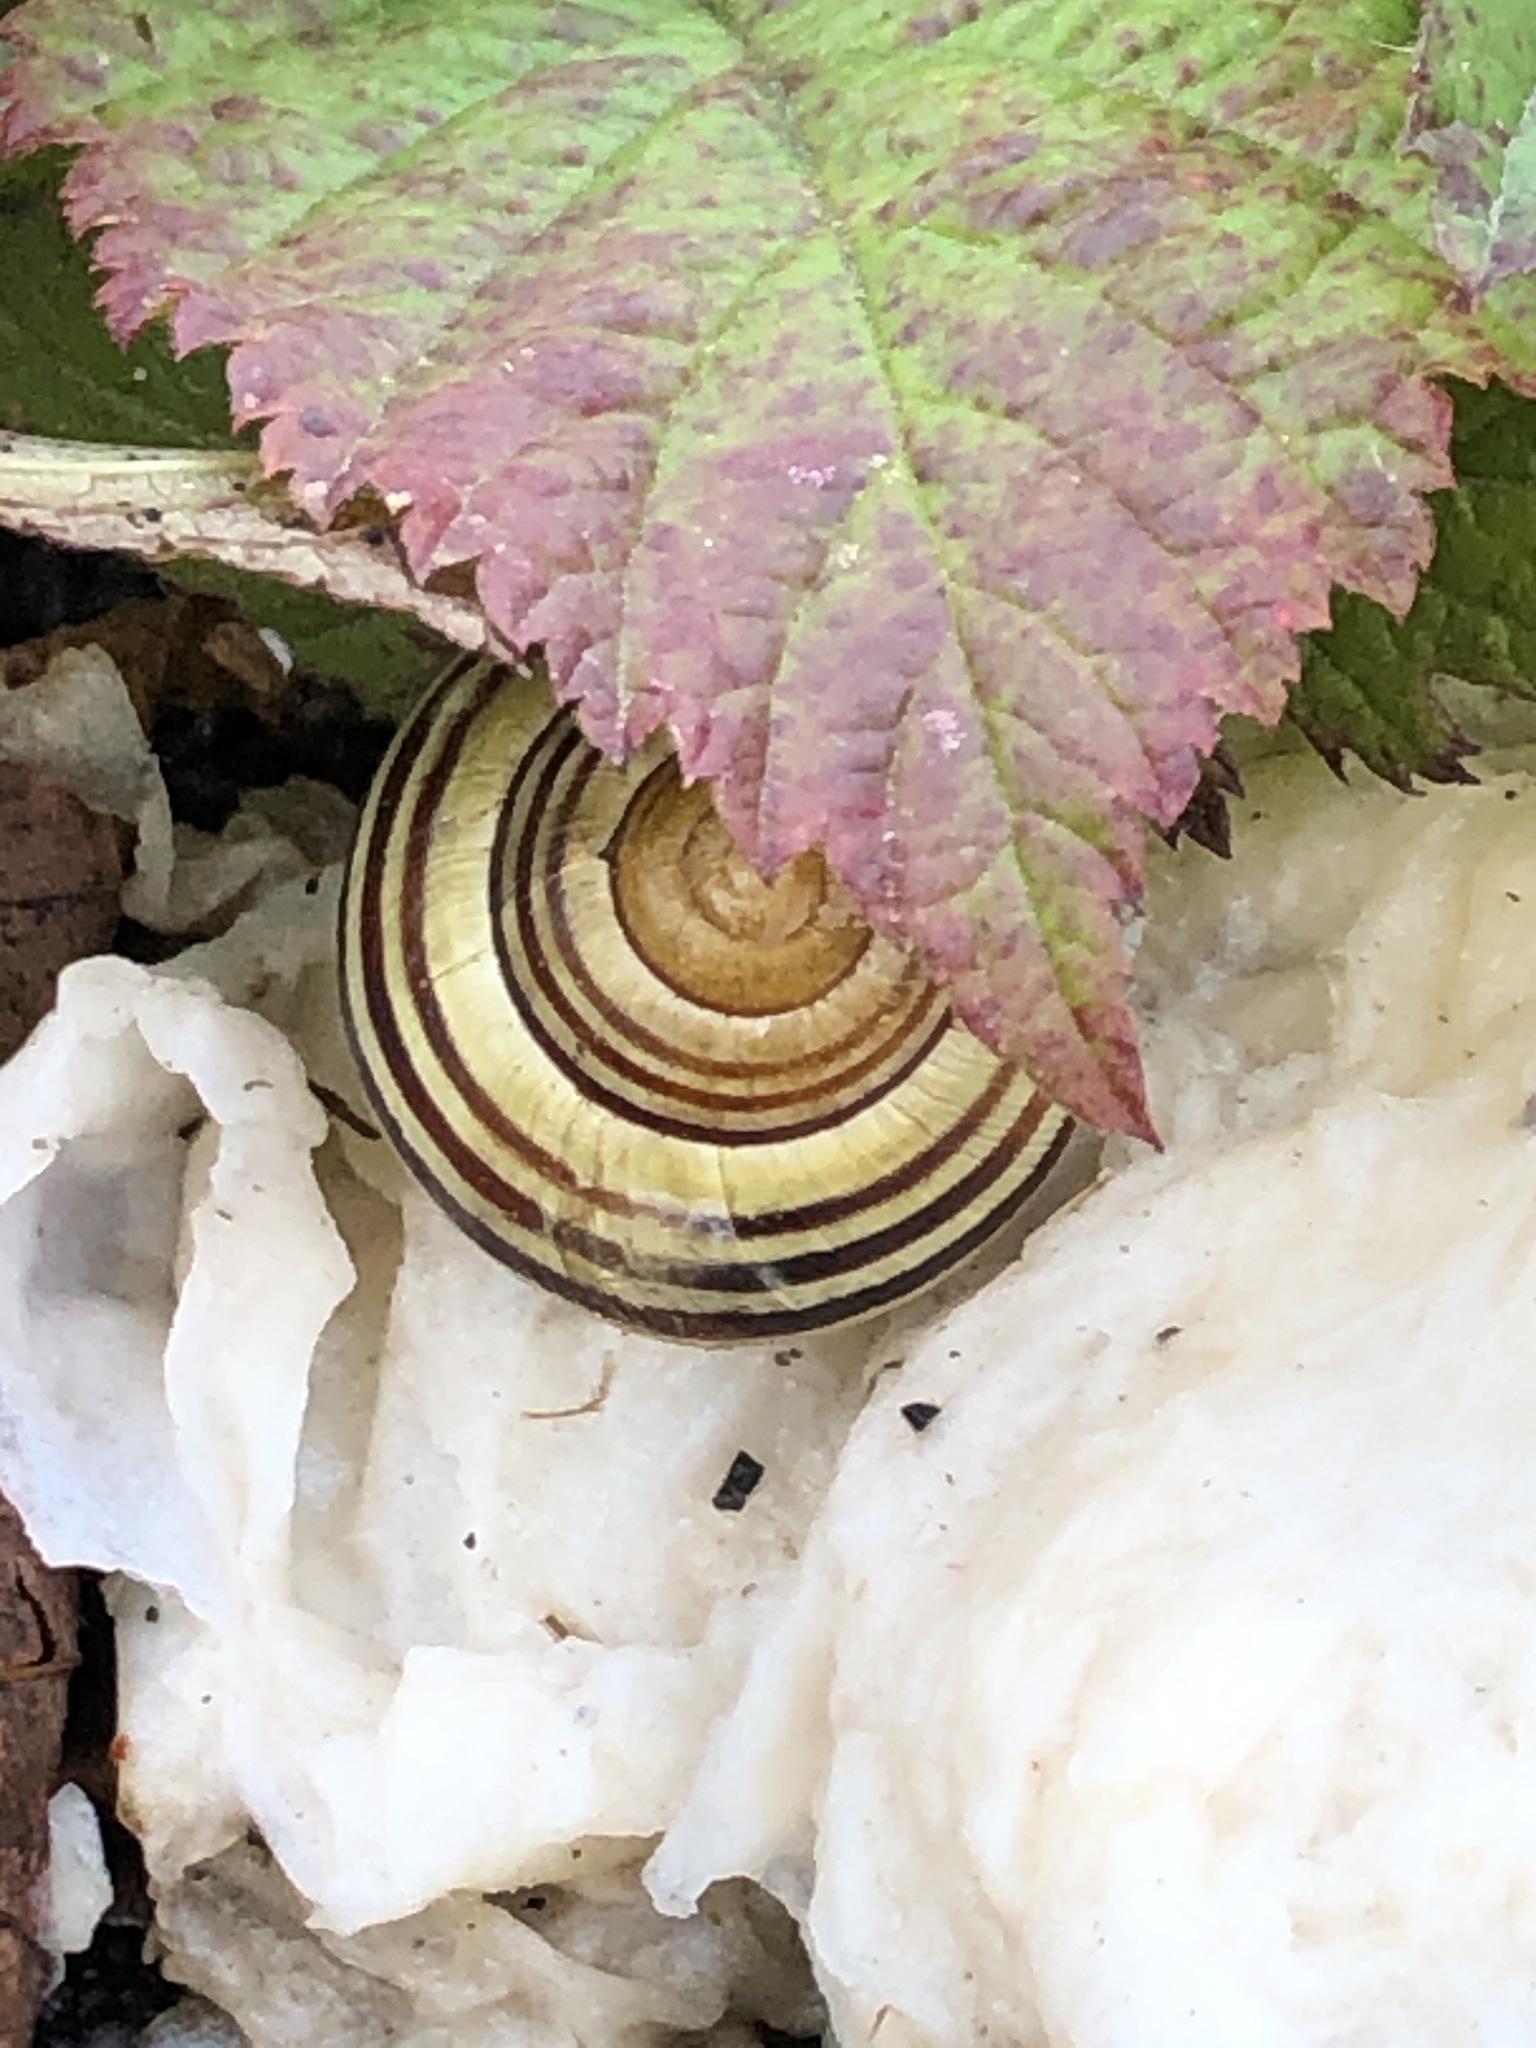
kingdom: Animalia
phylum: Mollusca
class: Gastropoda
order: Stylommatophora
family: Helicidae
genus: Cepaea
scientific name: Cepaea
